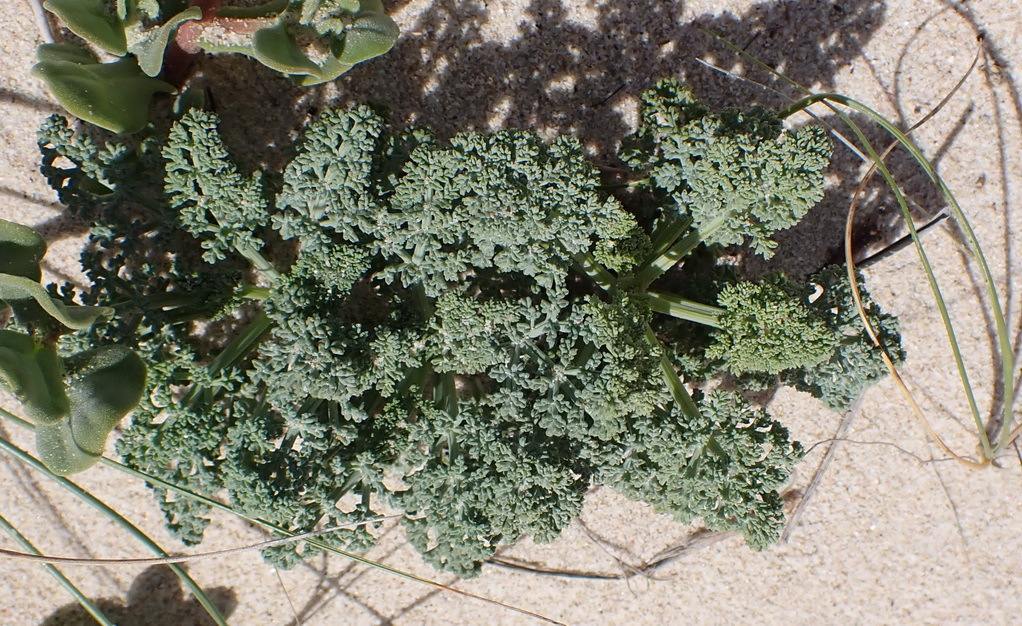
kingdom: Plantae
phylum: Tracheophyta
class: Magnoliopsida
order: Apiales
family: Apiaceae
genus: Dasispermum
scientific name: Dasispermum suffruticosum
